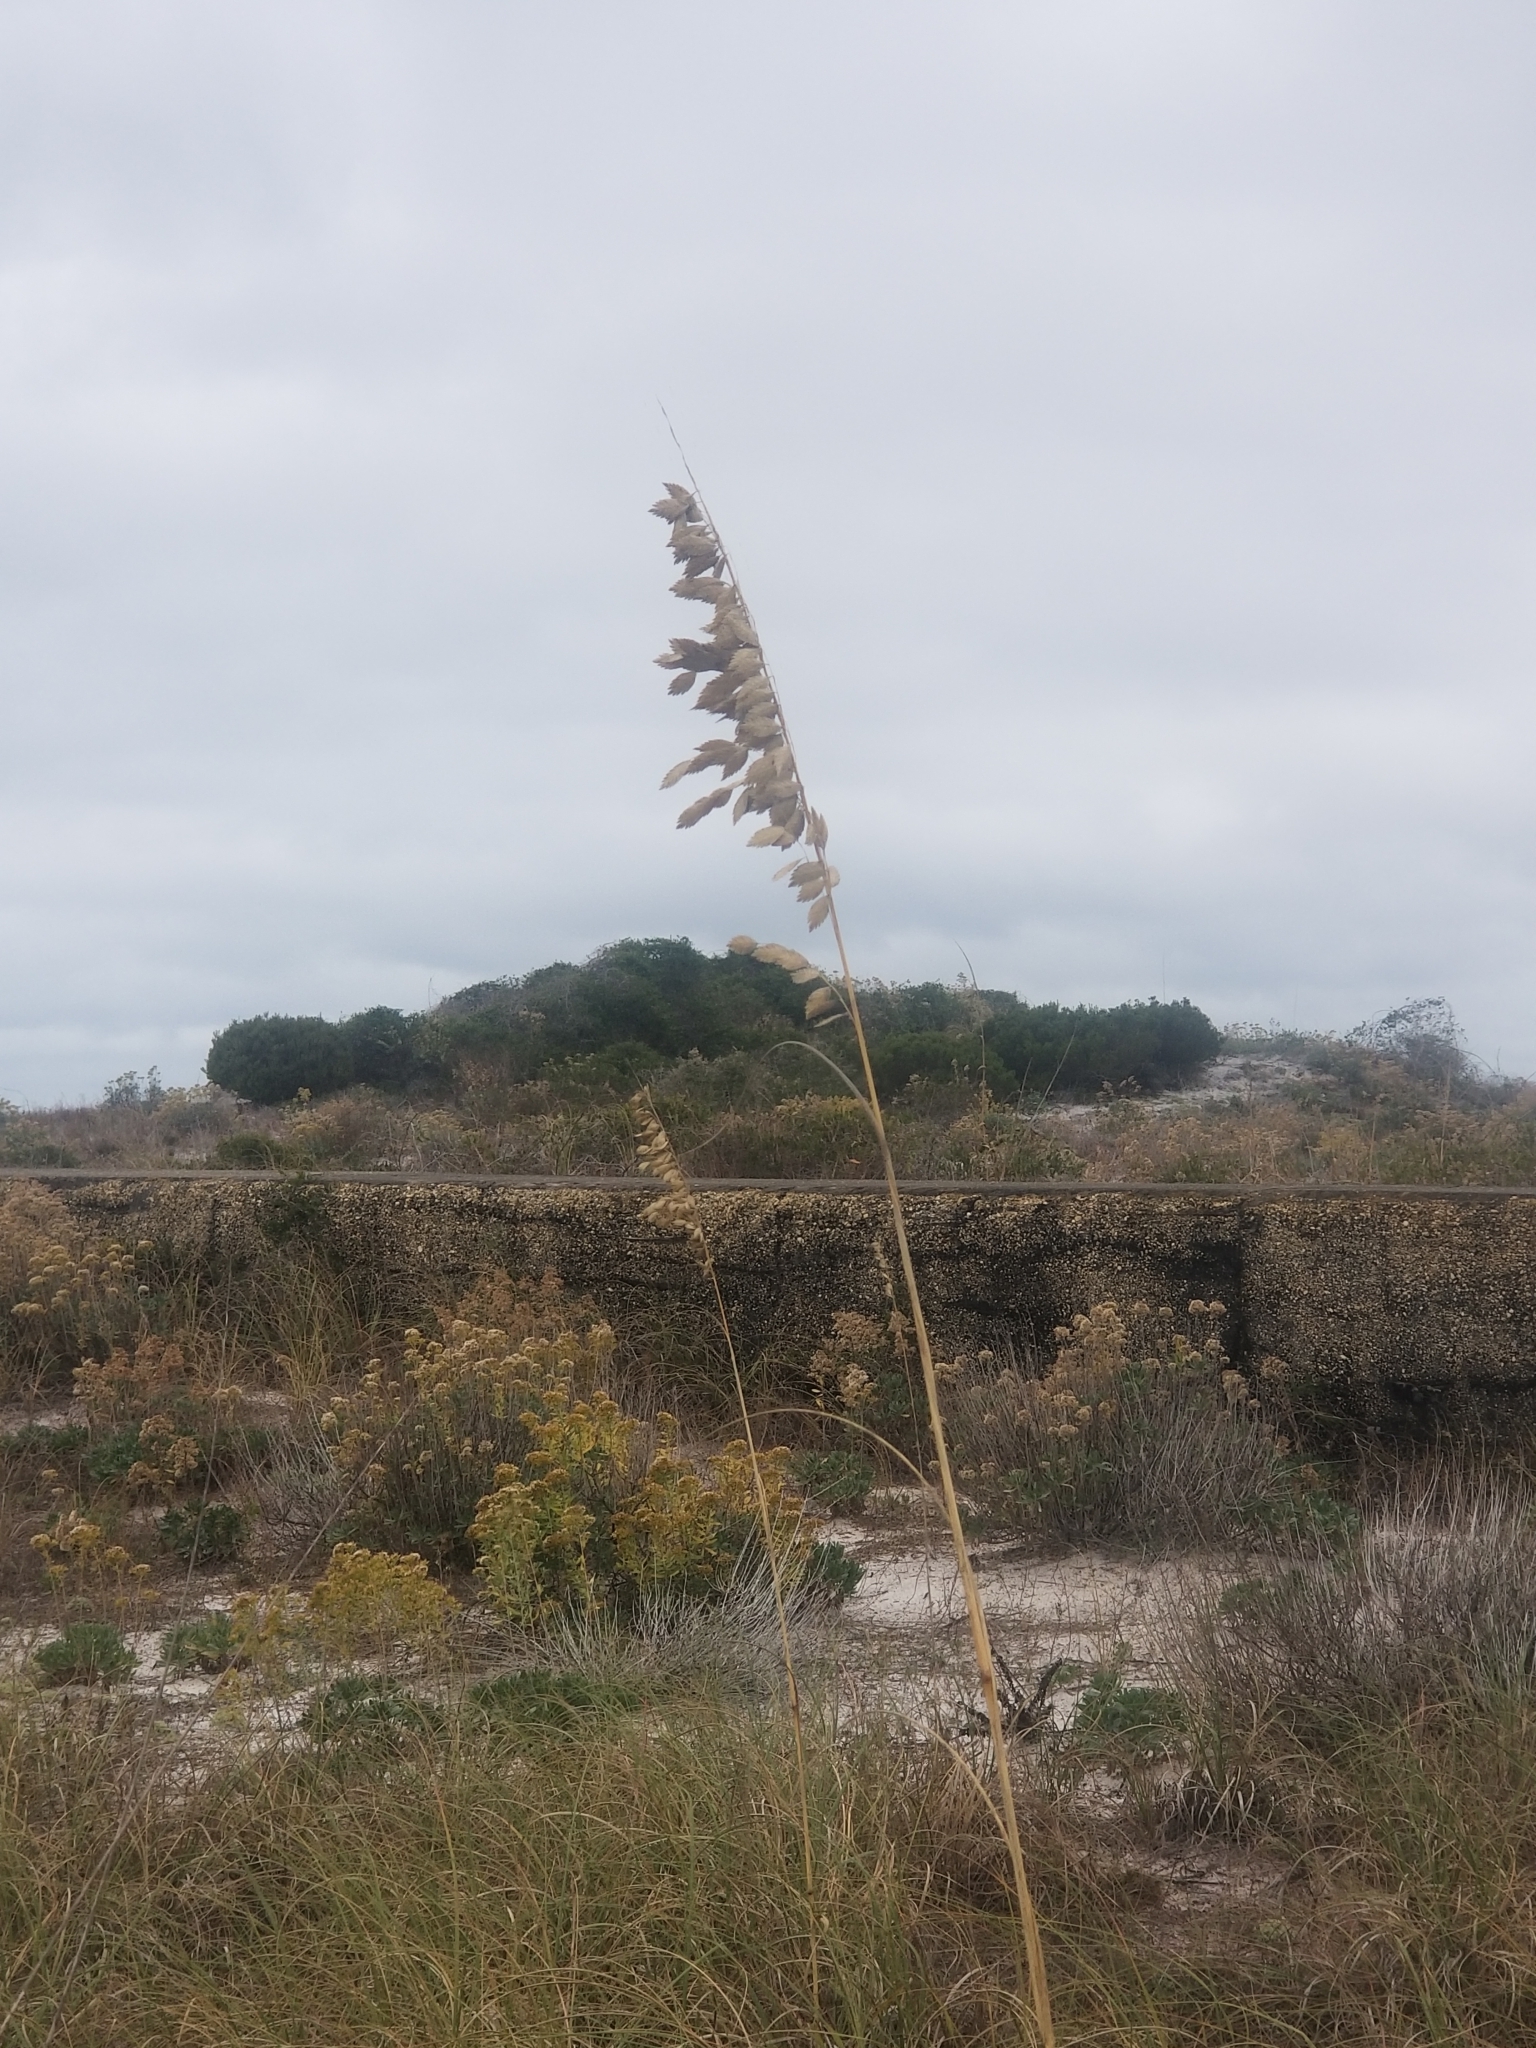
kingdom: Plantae
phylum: Tracheophyta
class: Liliopsida
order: Poales
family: Poaceae
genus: Uniola
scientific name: Uniola paniculata
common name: Seaside-oats
